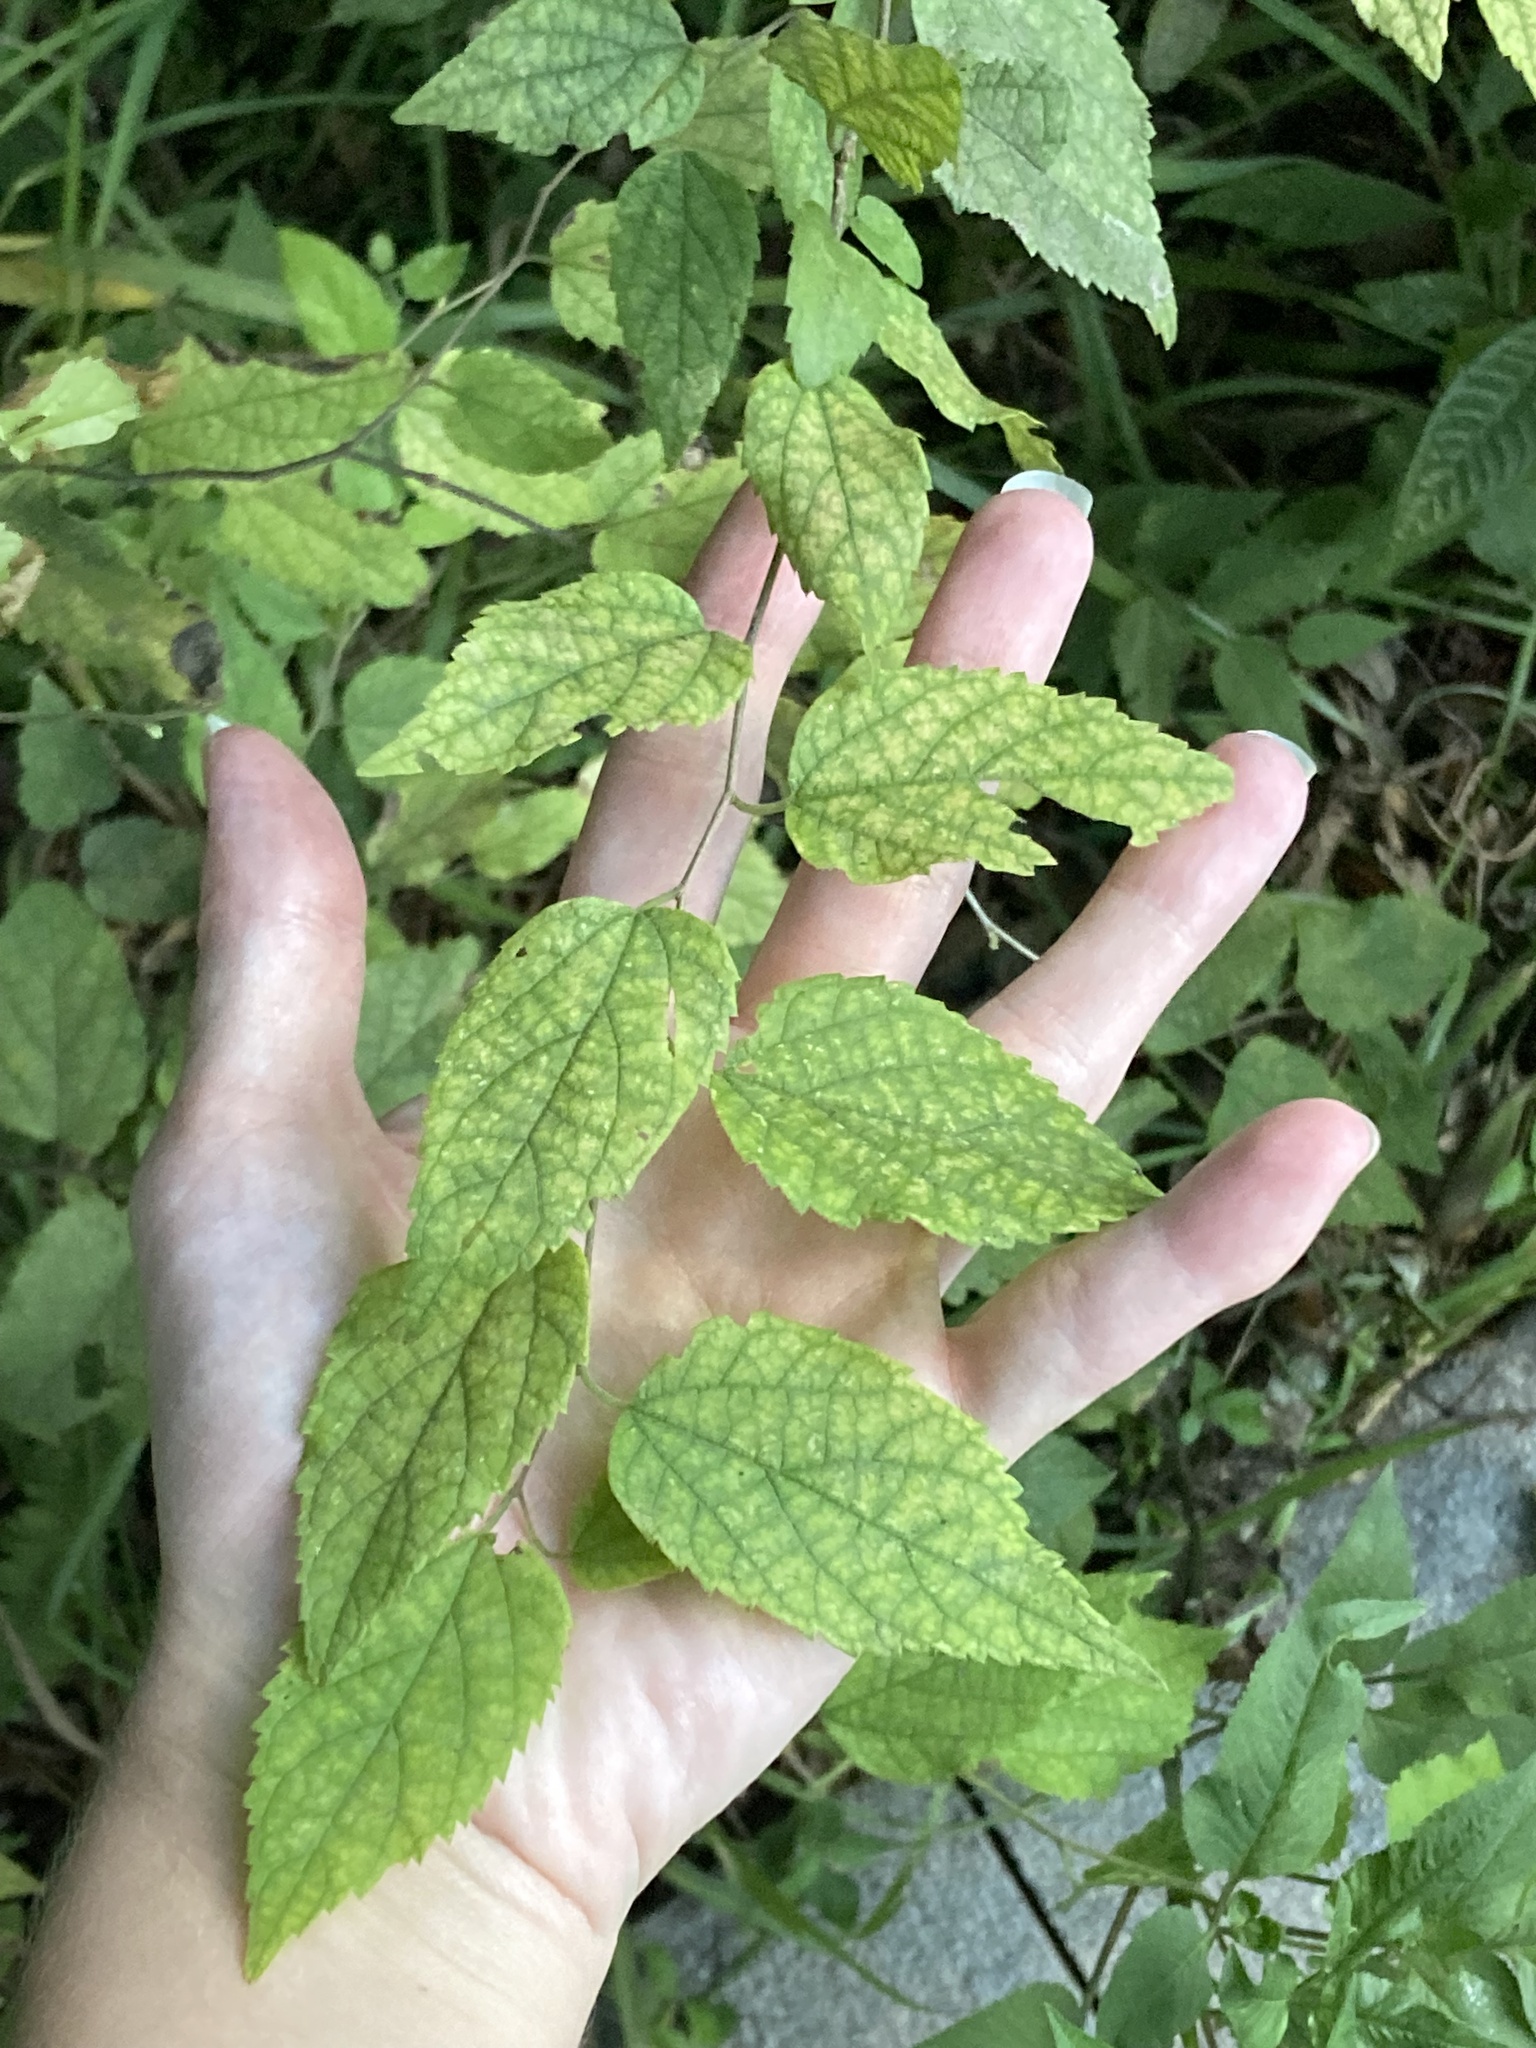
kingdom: Plantae
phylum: Tracheophyta
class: Magnoliopsida
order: Rosales
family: Cannabaceae
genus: Celtis
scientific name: Celtis laevigata
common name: Sugarberry
